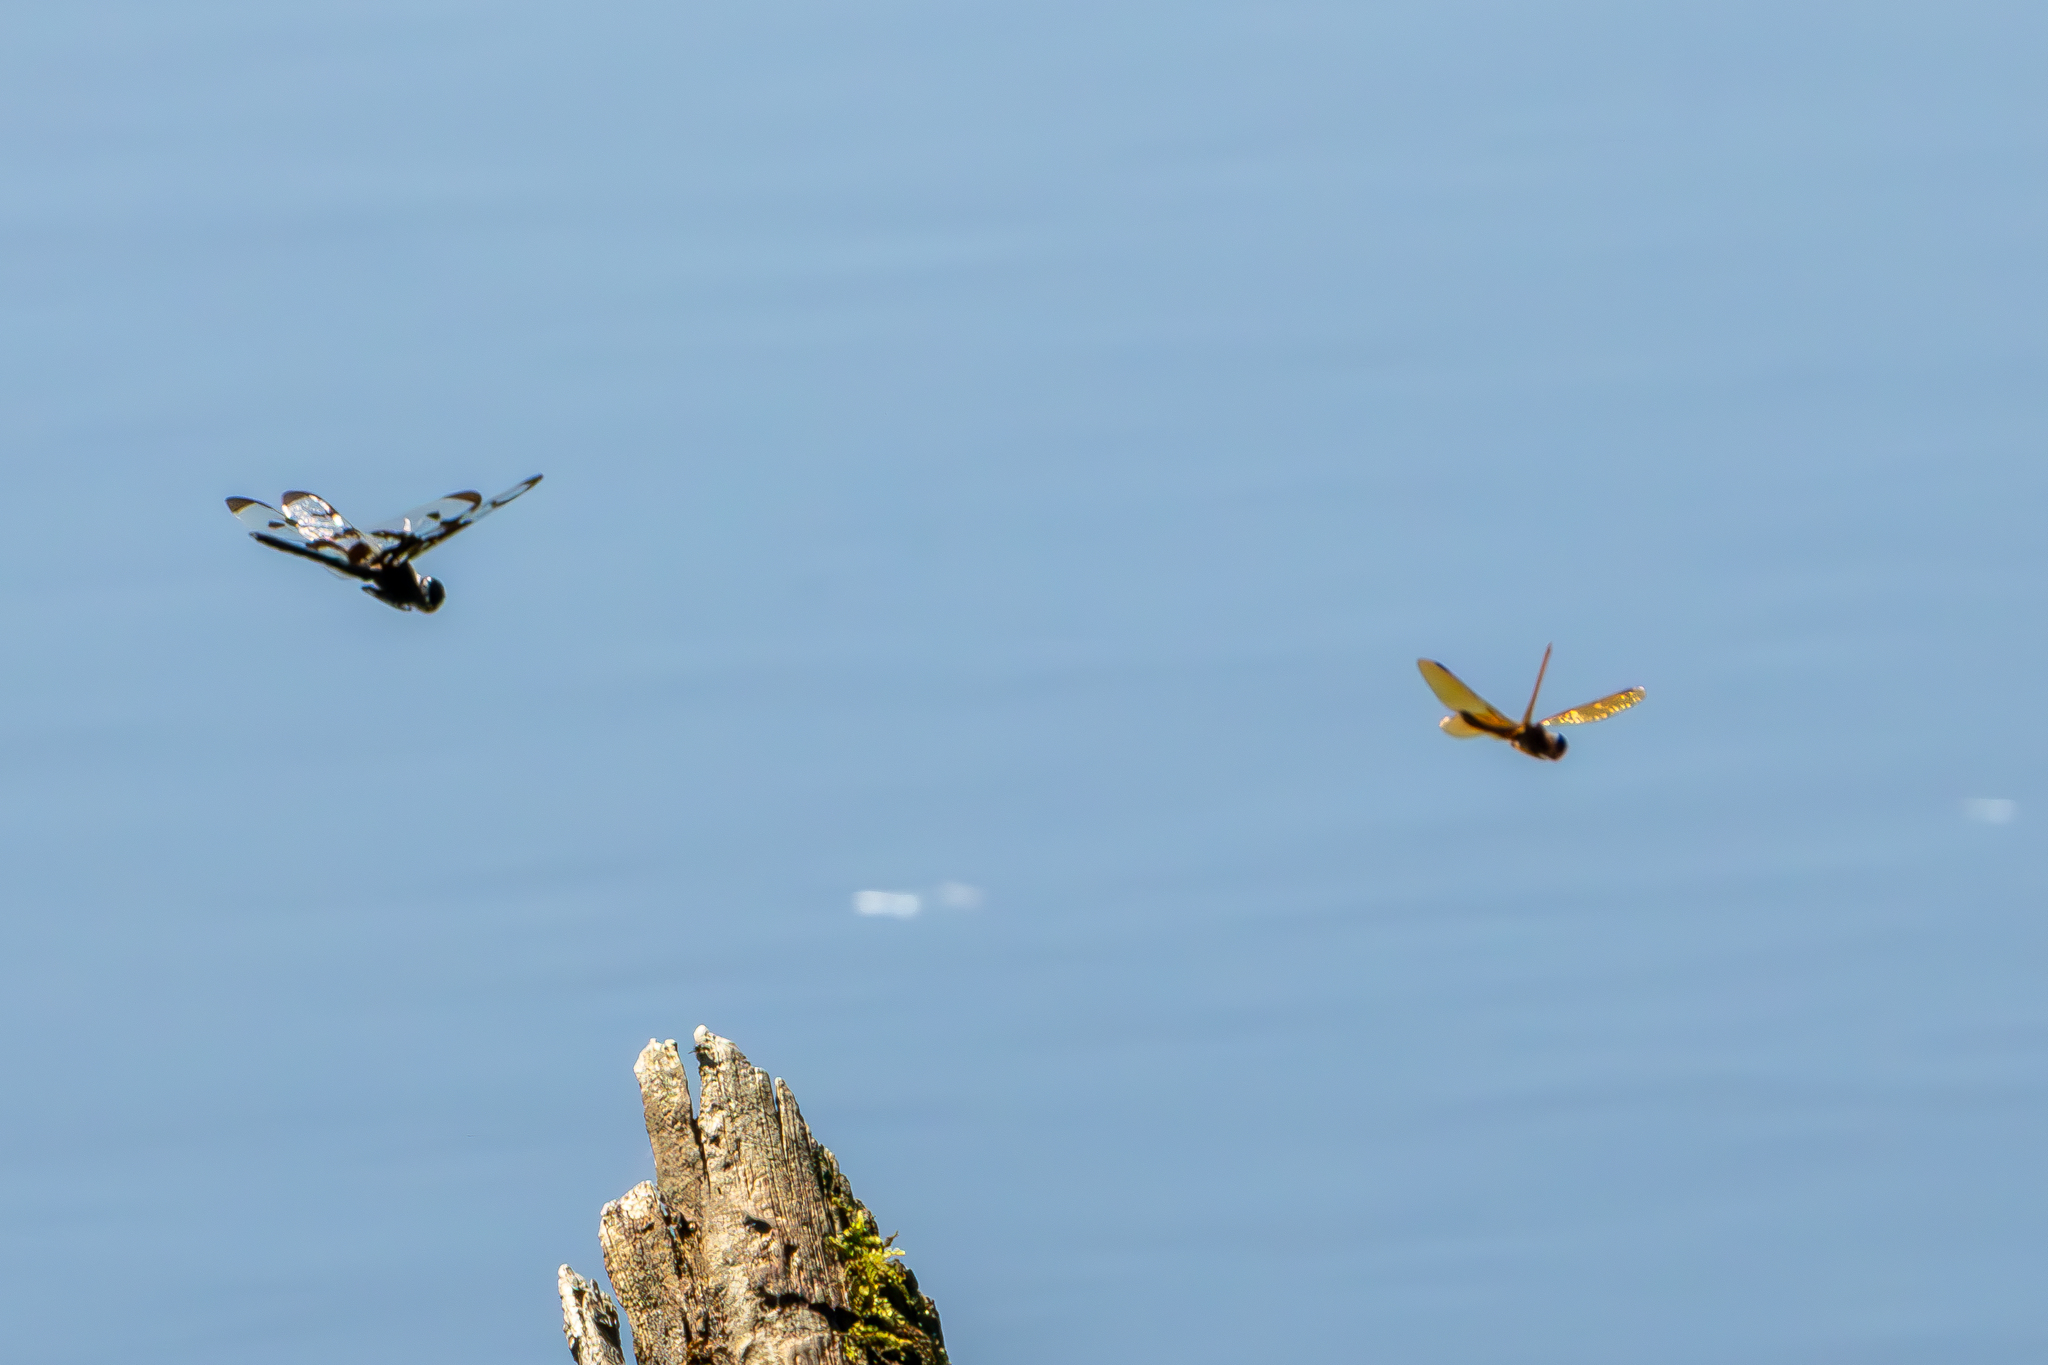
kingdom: Animalia
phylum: Arthropoda
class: Insecta
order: Odonata
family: Libellulidae
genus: Celithemis
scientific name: Celithemis fasciata
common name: Banded pennant
